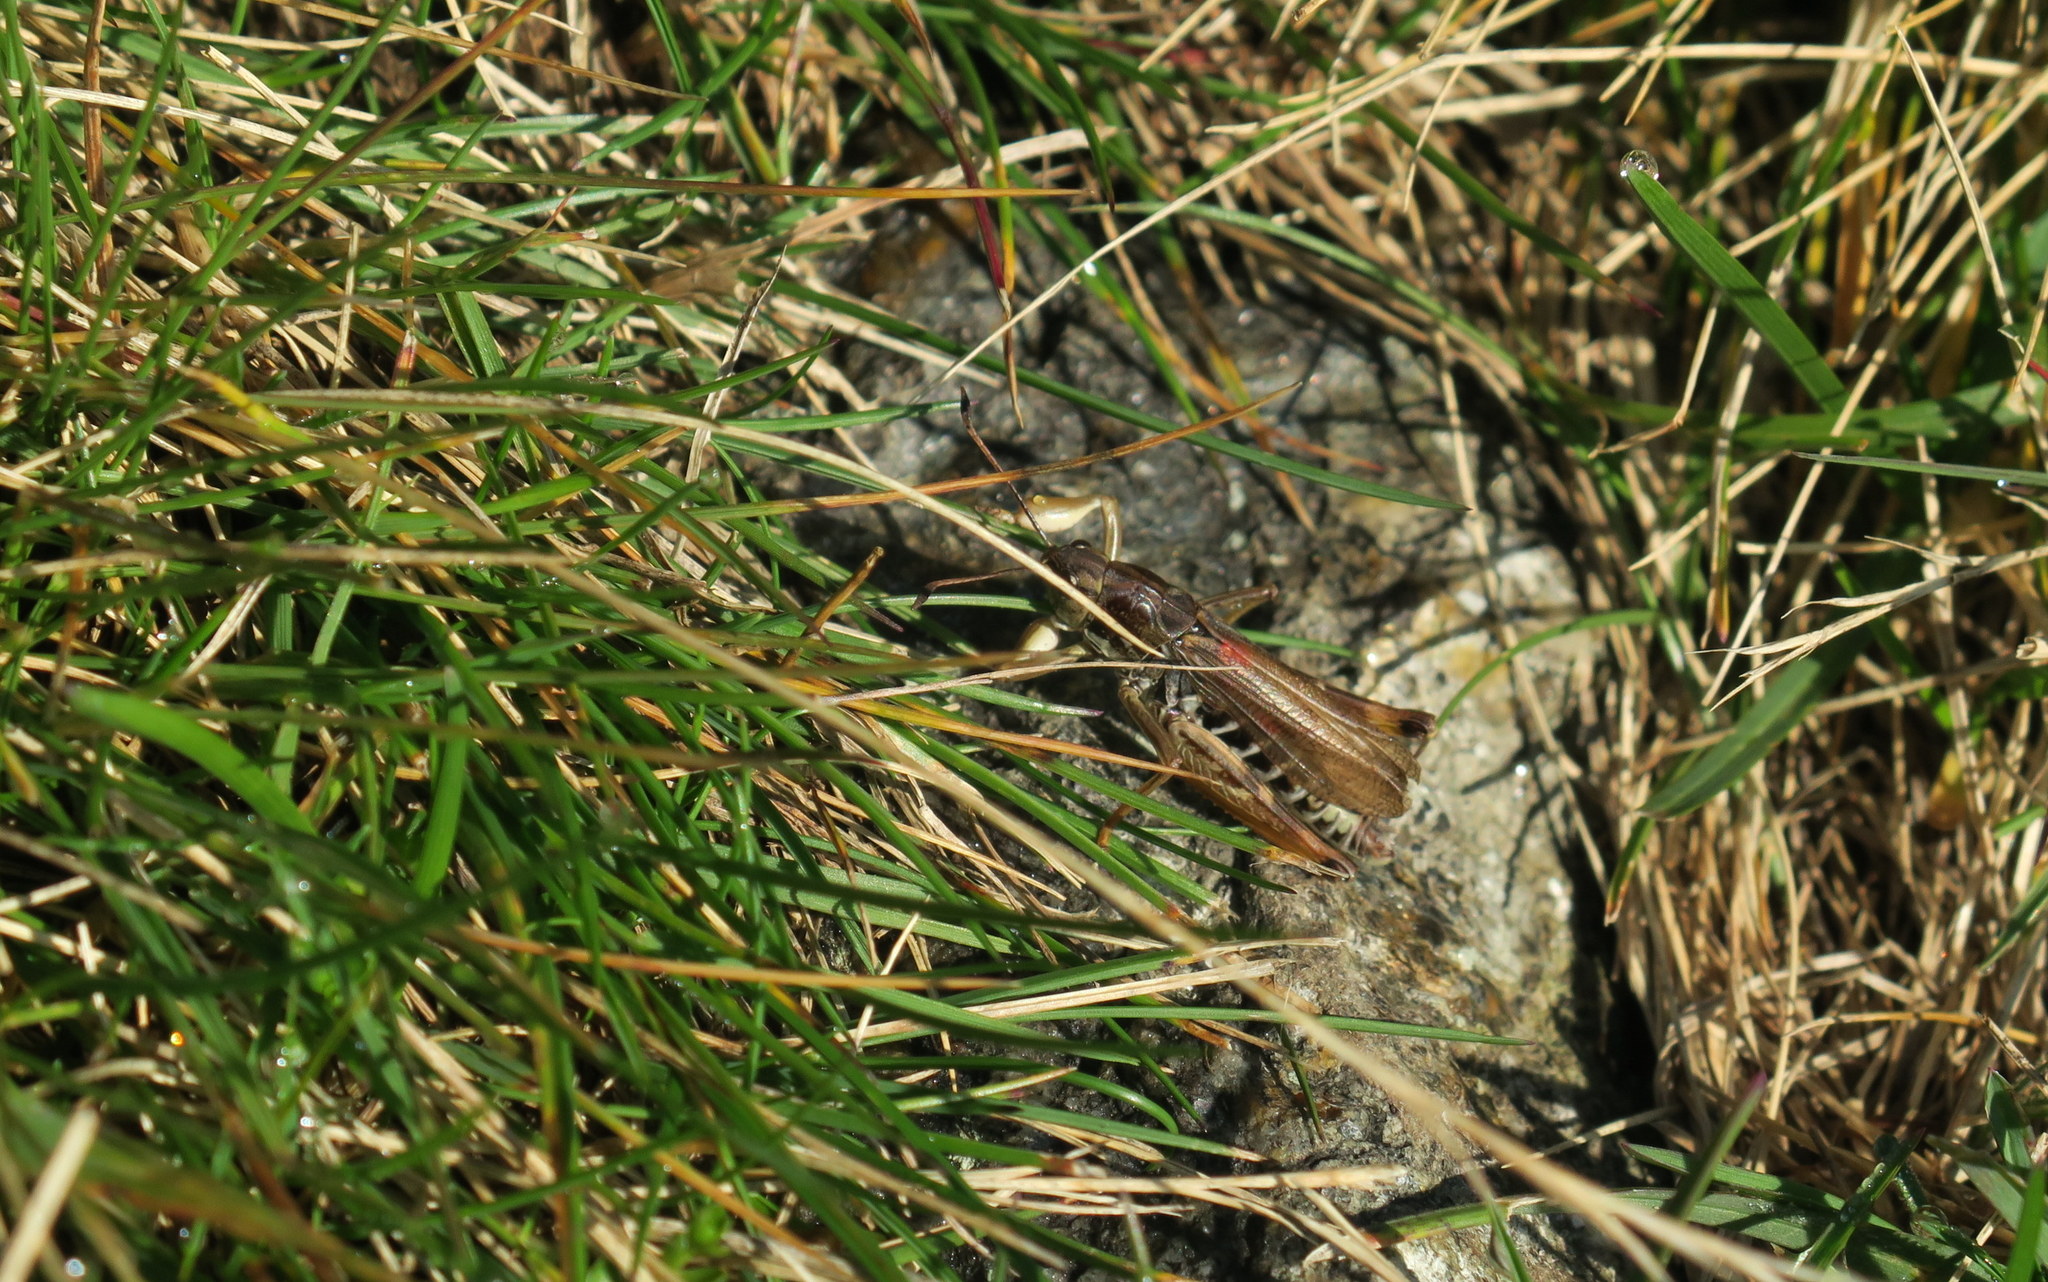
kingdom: Animalia
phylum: Arthropoda
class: Insecta
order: Orthoptera
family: Acrididae
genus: Gomphocerus
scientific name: Gomphocerus sibiricus
